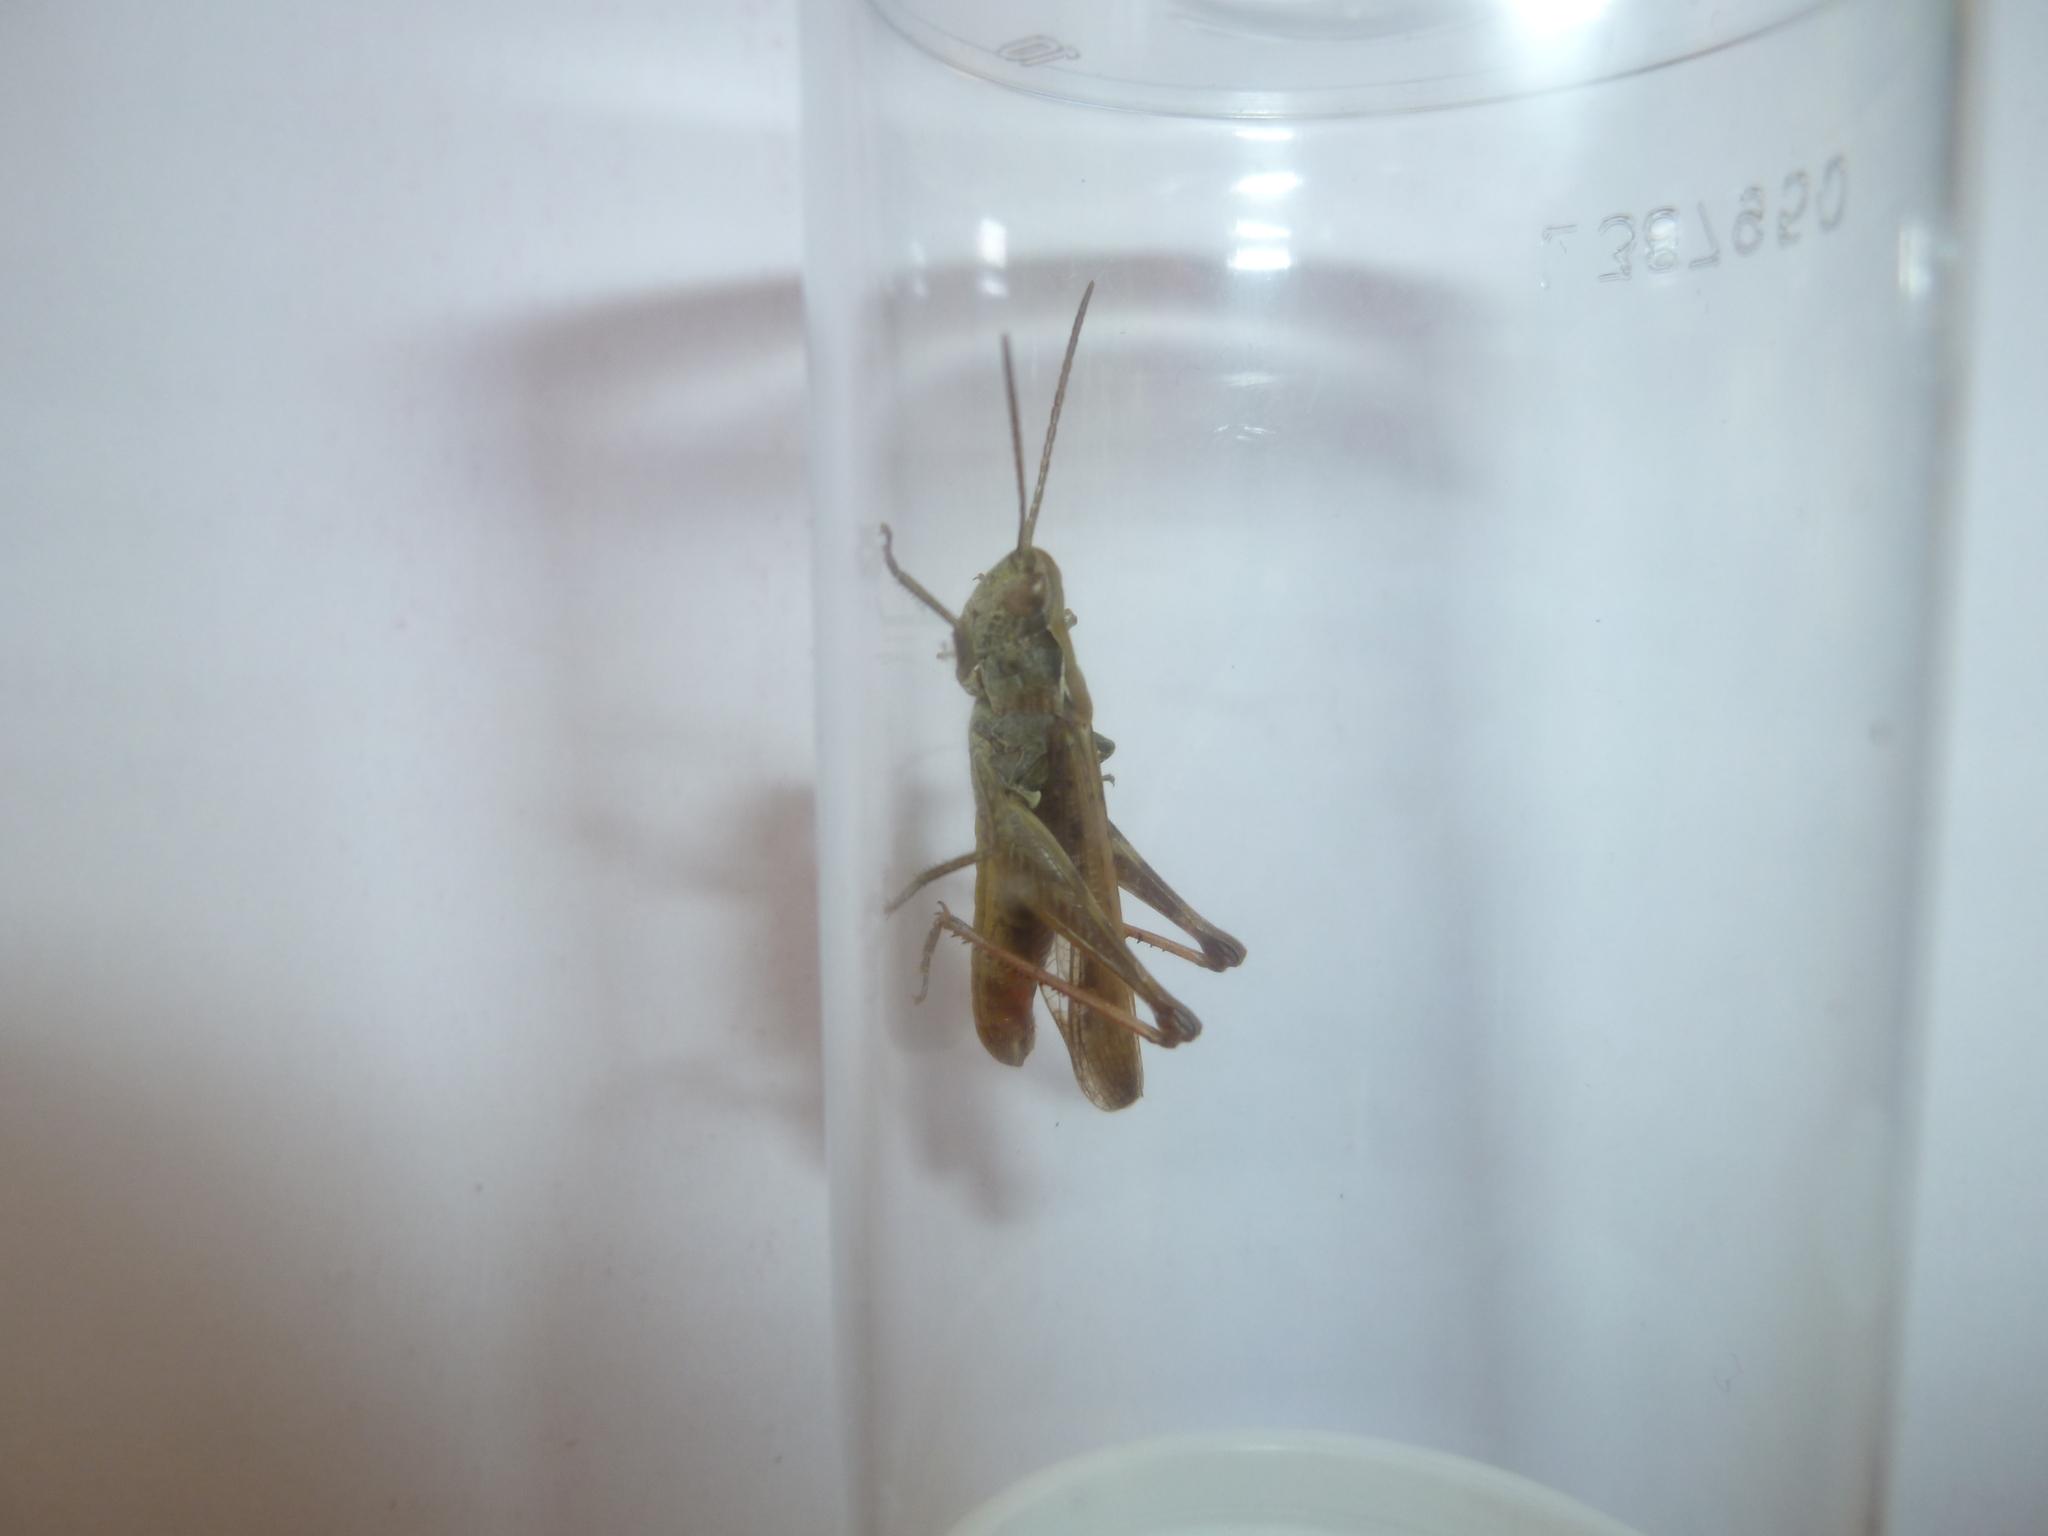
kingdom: Animalia
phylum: Arthropoda
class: Insecta
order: Orthoptera
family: Acrididae
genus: Chorthippus
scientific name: Chorthippus biguttulus
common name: Bow-winged grasshopper
